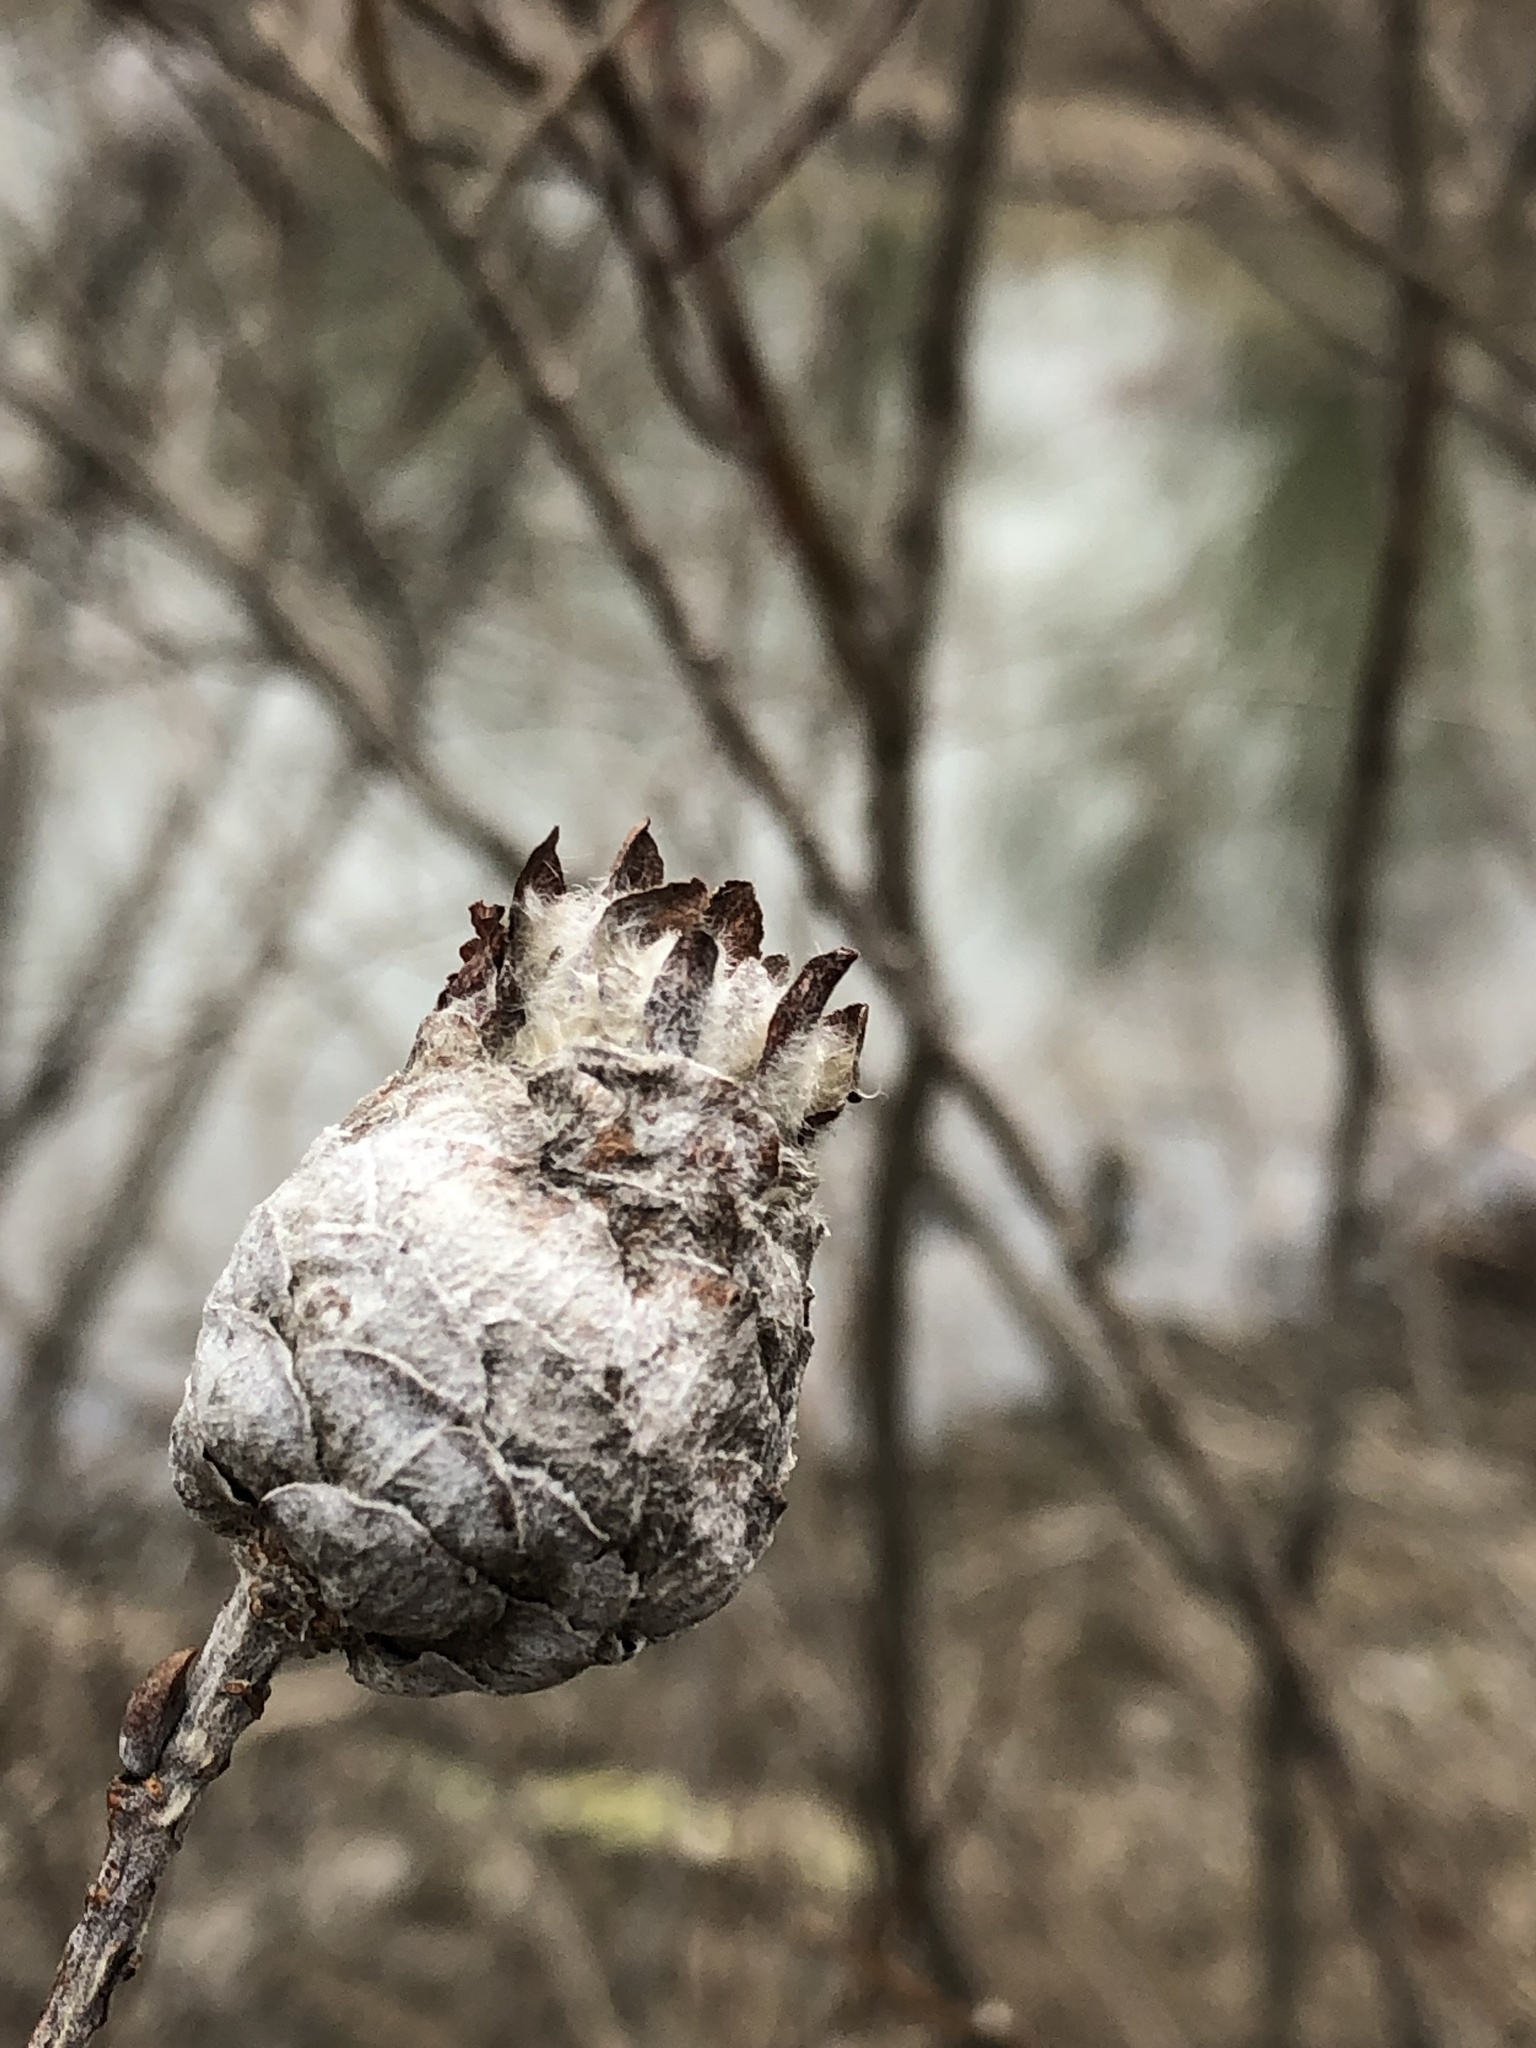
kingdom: Animalia
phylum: Arthropoda
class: Insecta
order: Diptera
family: Cecidomyiidae
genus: Rabdophaga
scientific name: Rabdophaga strobiloides
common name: Willow pinecone gall midge
